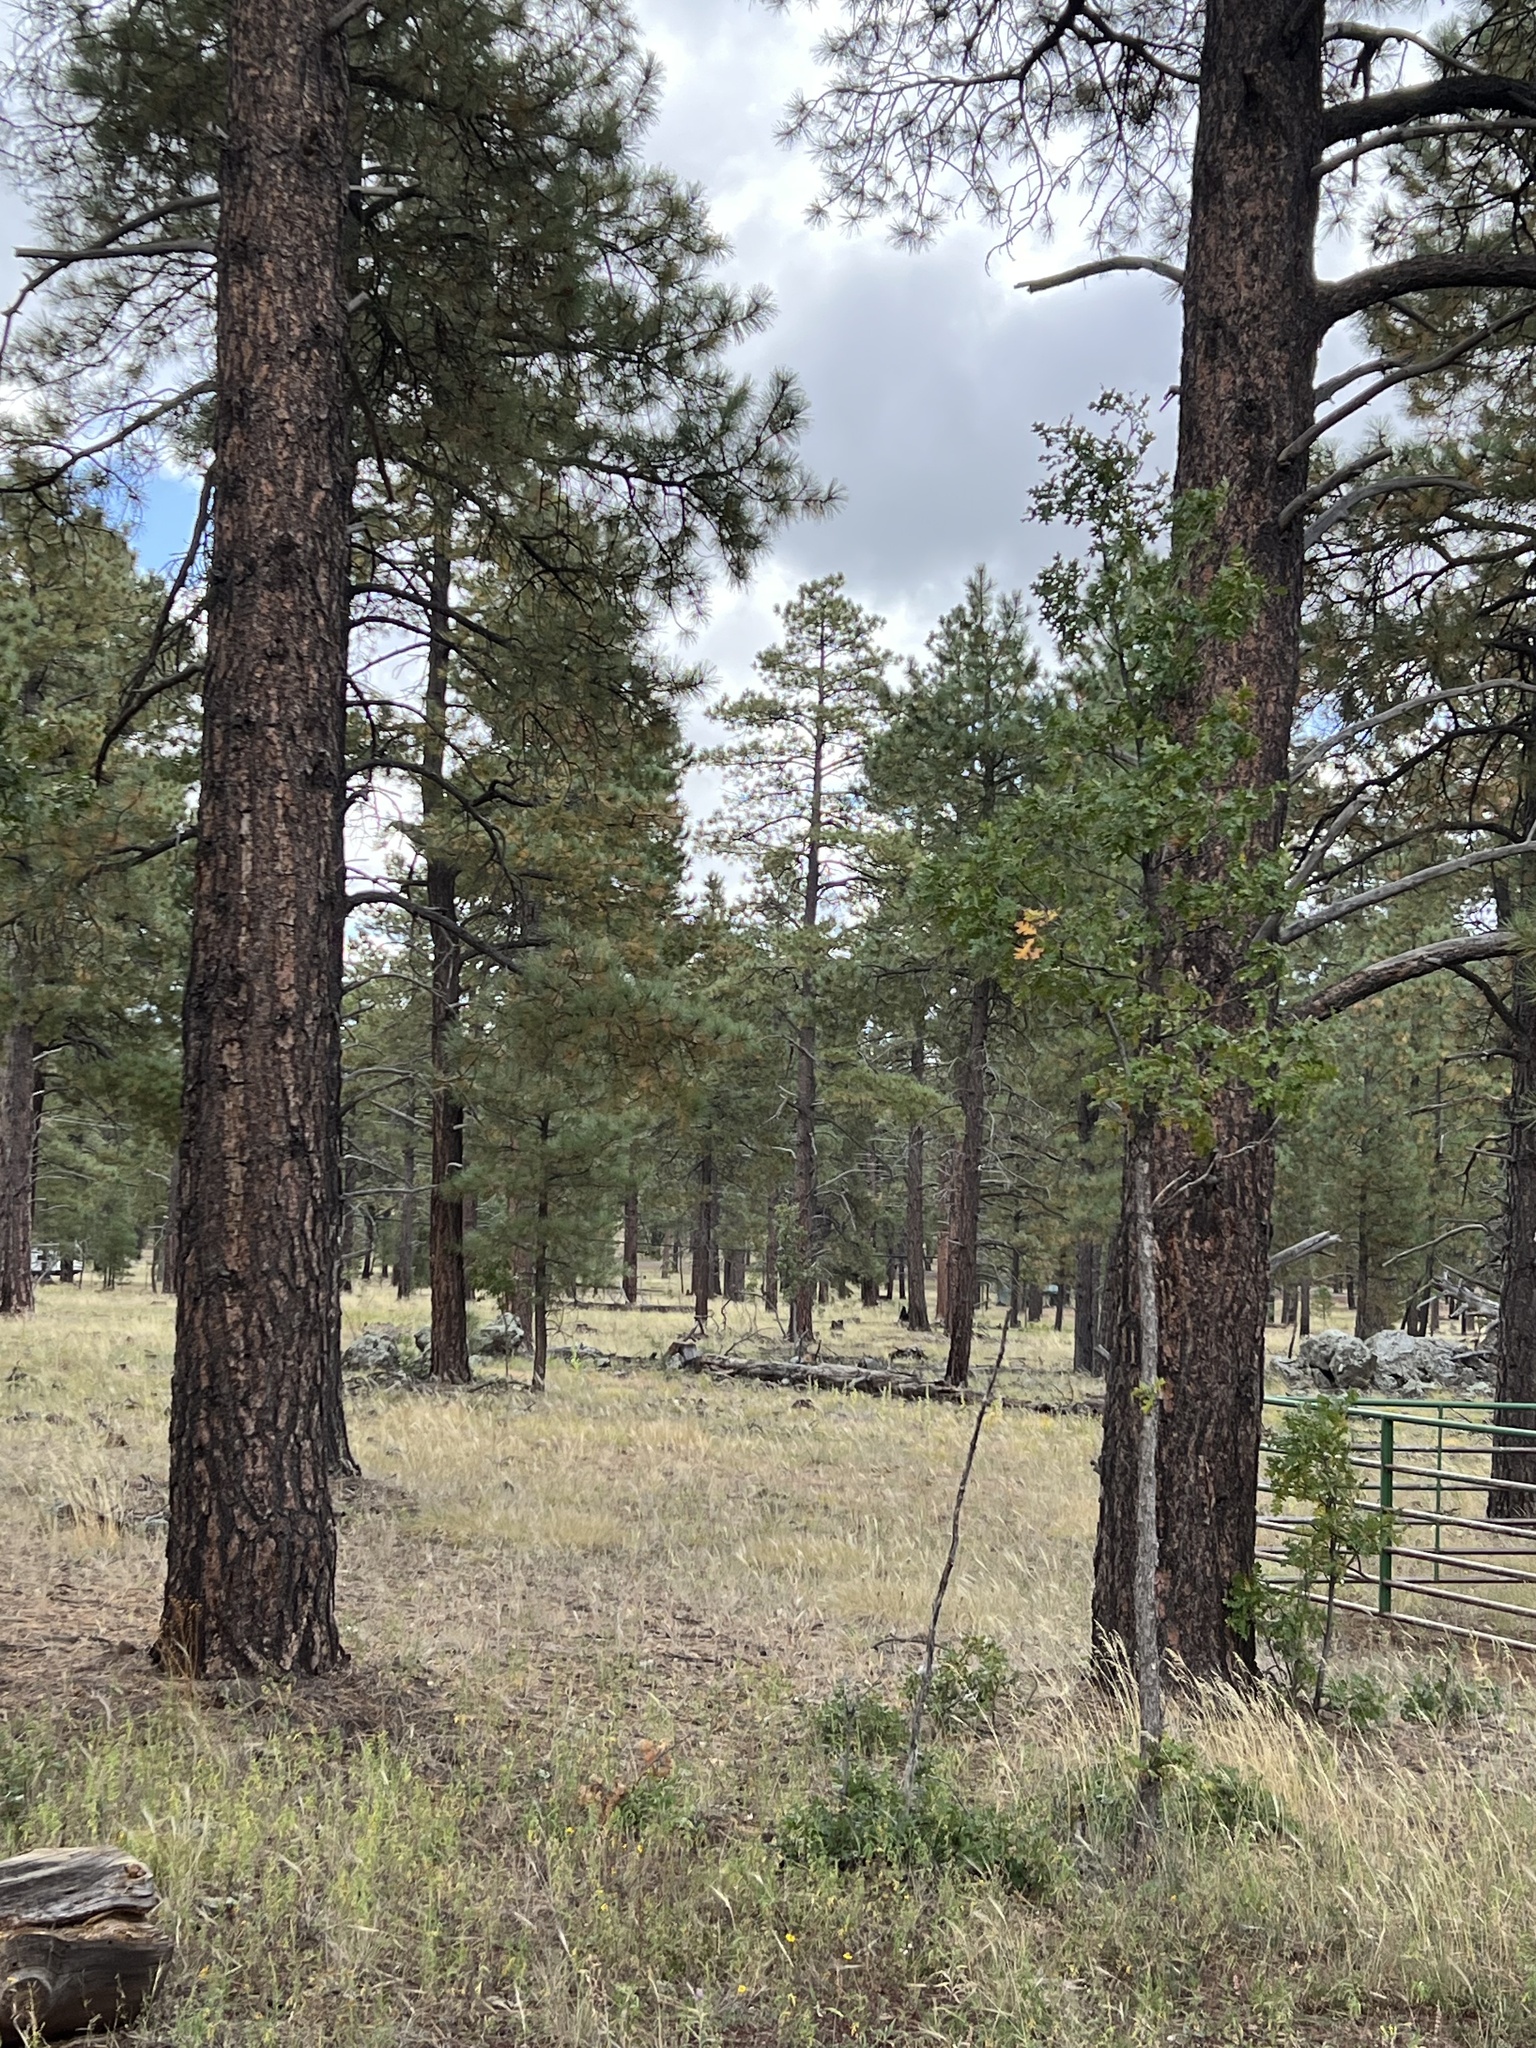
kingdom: Plantae
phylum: Tracheophyta
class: Pinopsida
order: Pinales
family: Pinaceae
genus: Pinus
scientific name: Pinus ponderosa
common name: Western yellow-pine
